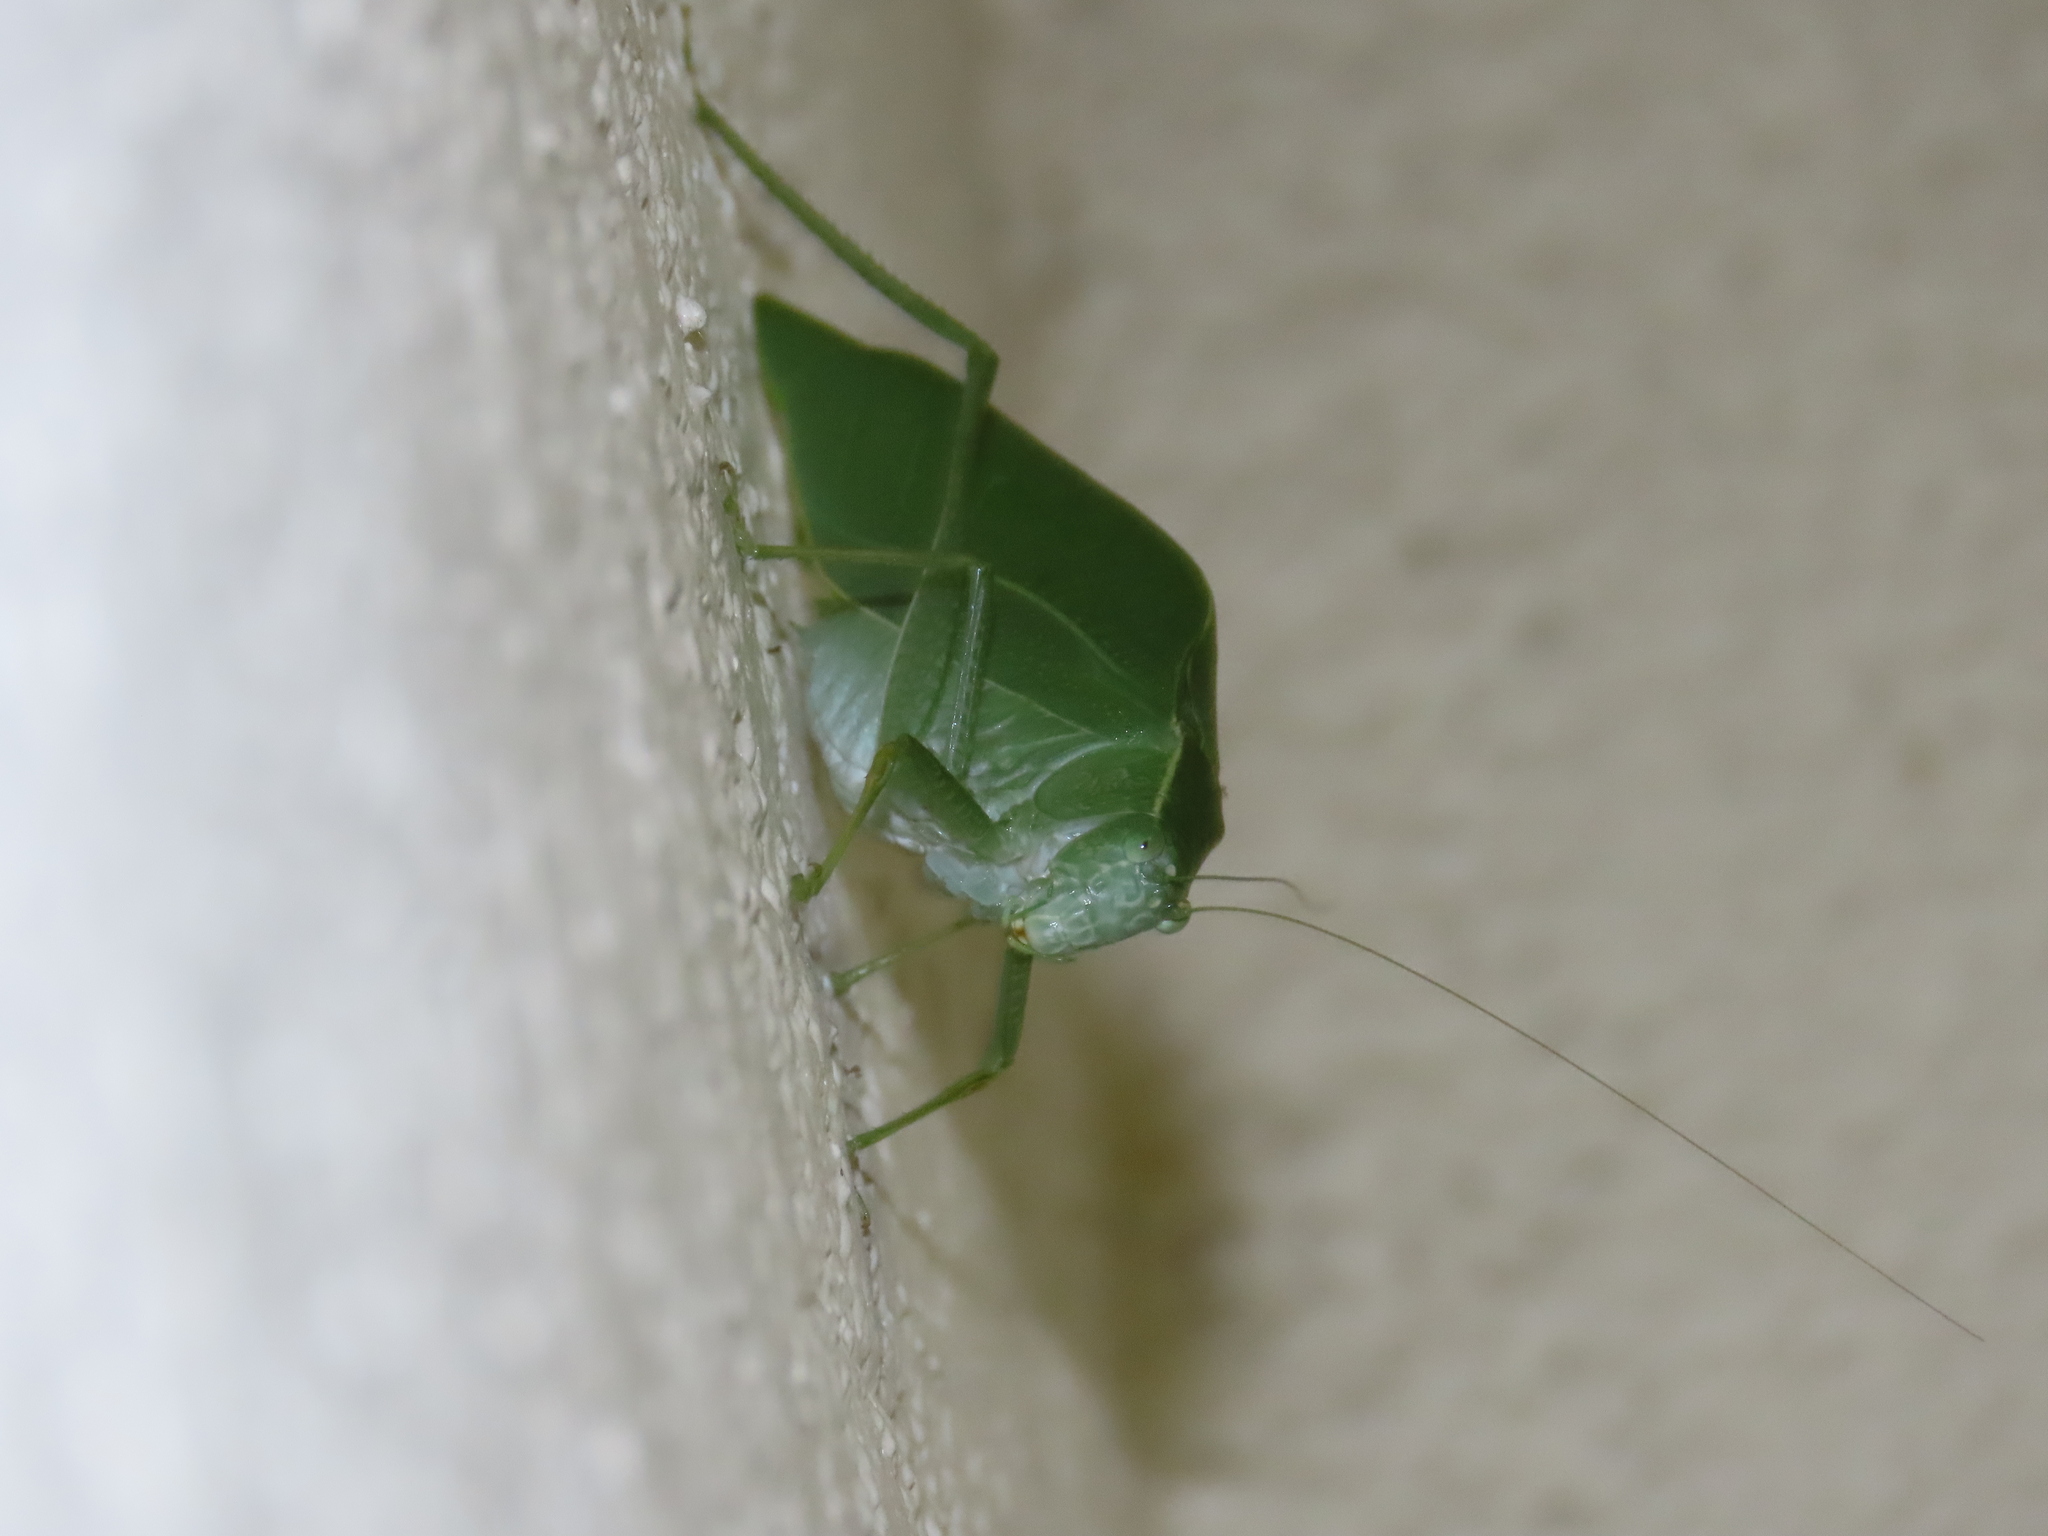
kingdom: Animalia
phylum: Arthropoda
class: Insecta
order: Orthoptera
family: Tettigoniidae
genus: Microcentrum
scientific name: Microcentrum rhombifolium
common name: Broad-winged katydid
